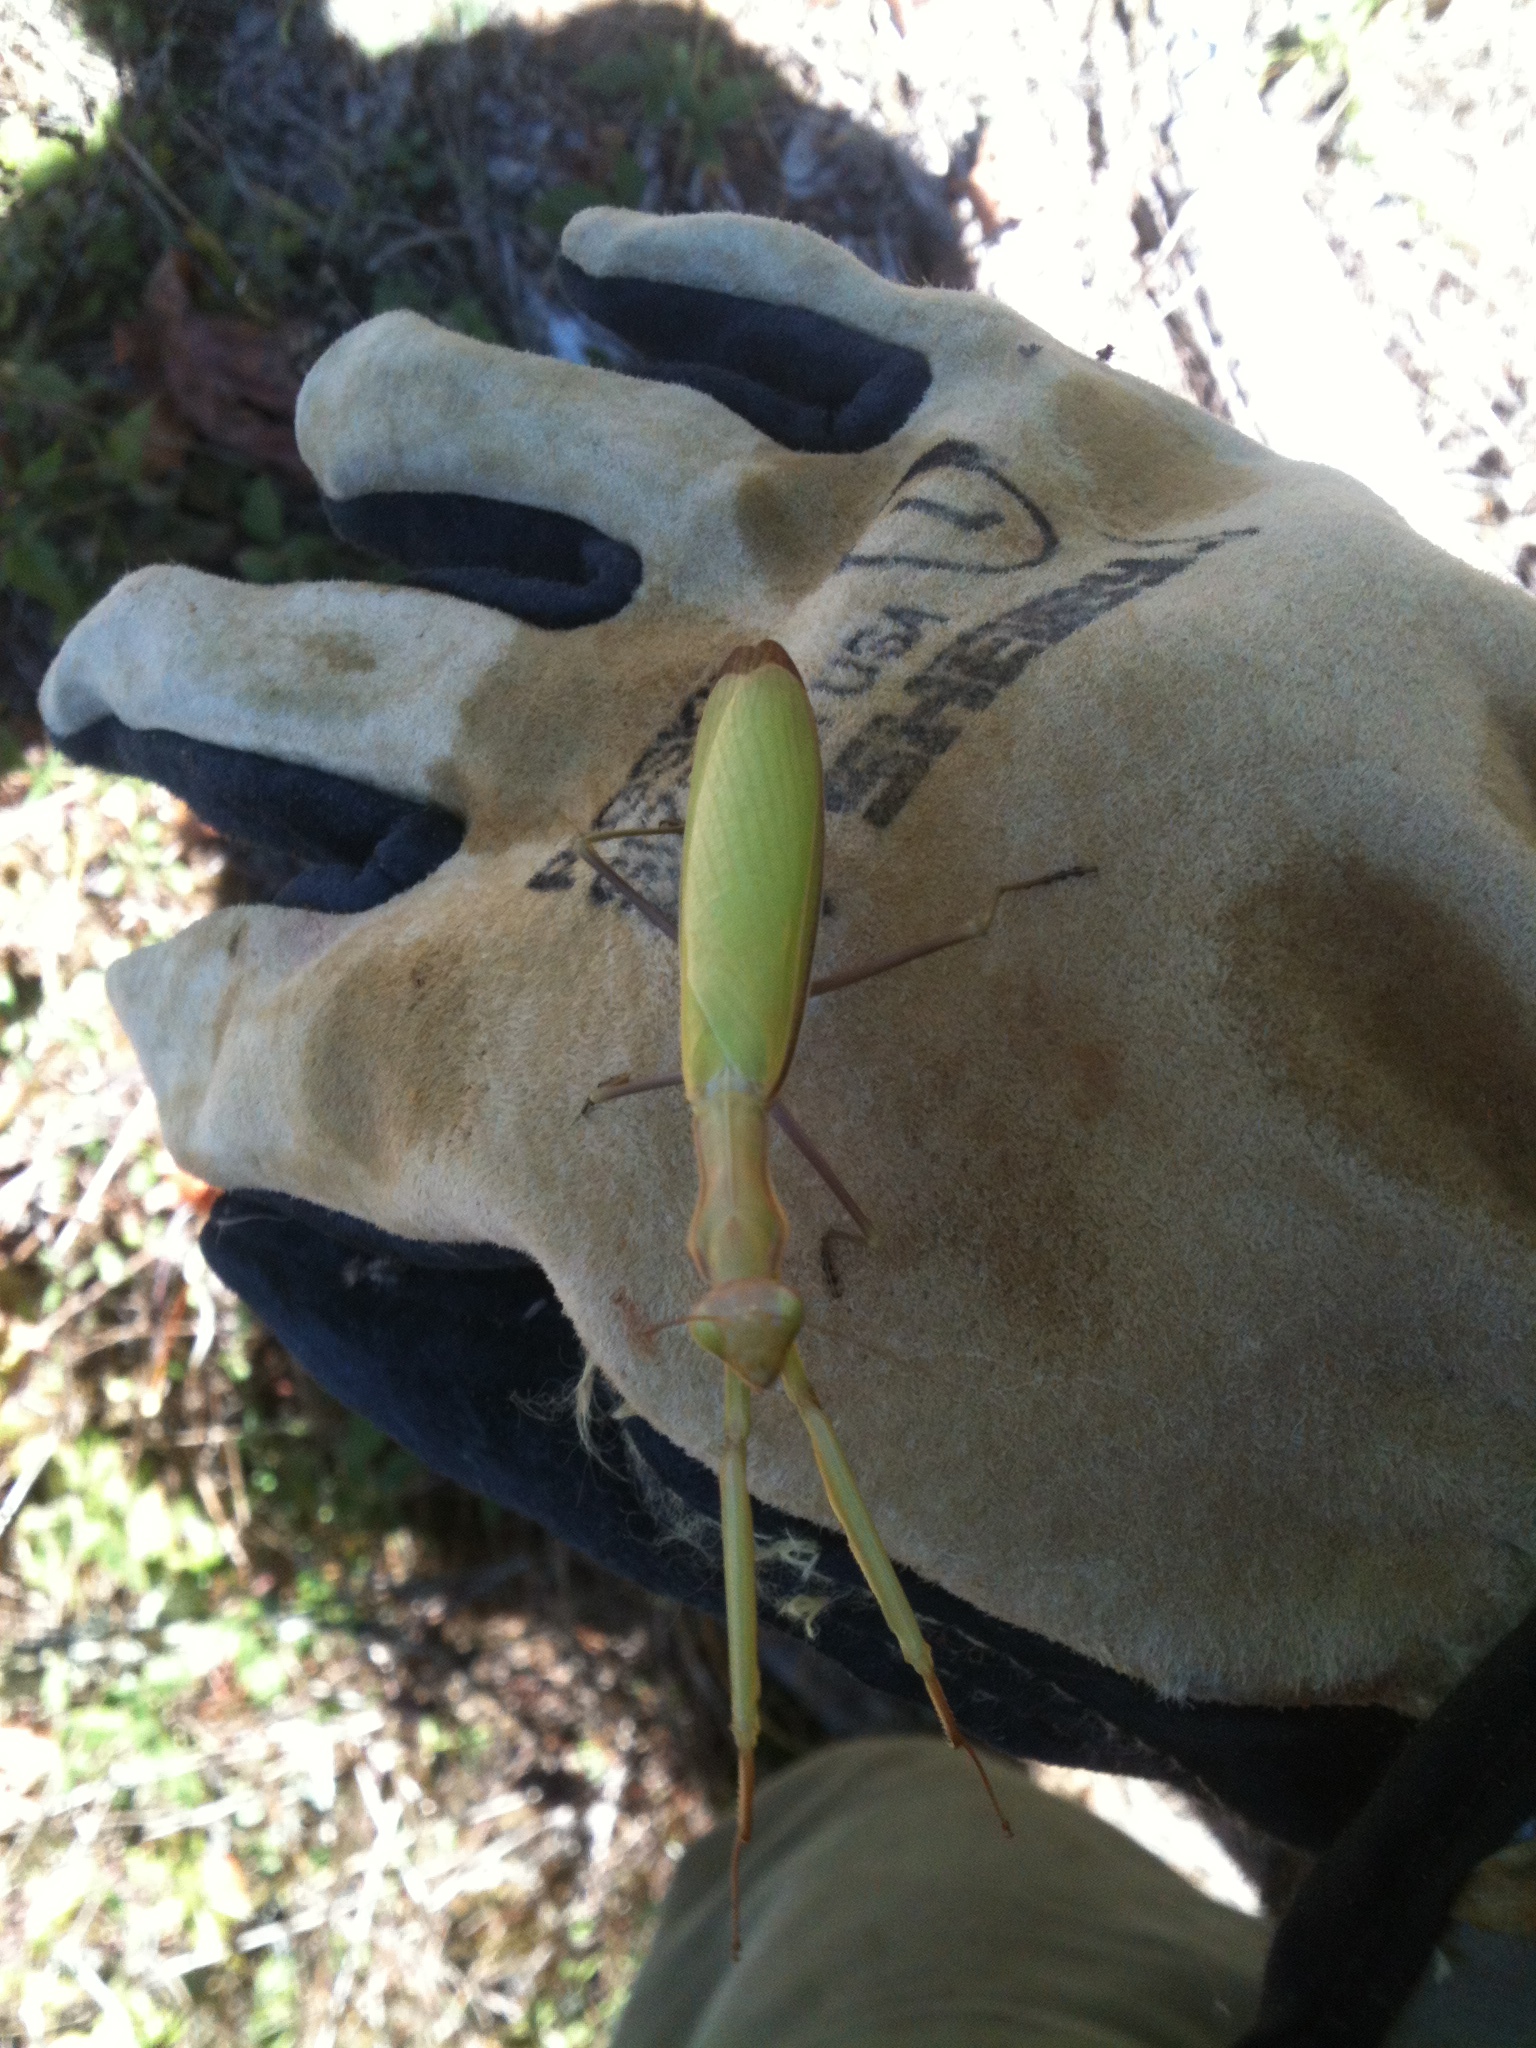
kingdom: Animalia
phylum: Arthropoda
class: Insecta
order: Mantodea
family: Mantidae
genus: Mantis
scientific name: Mantis religiosa
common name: Praying mantis
